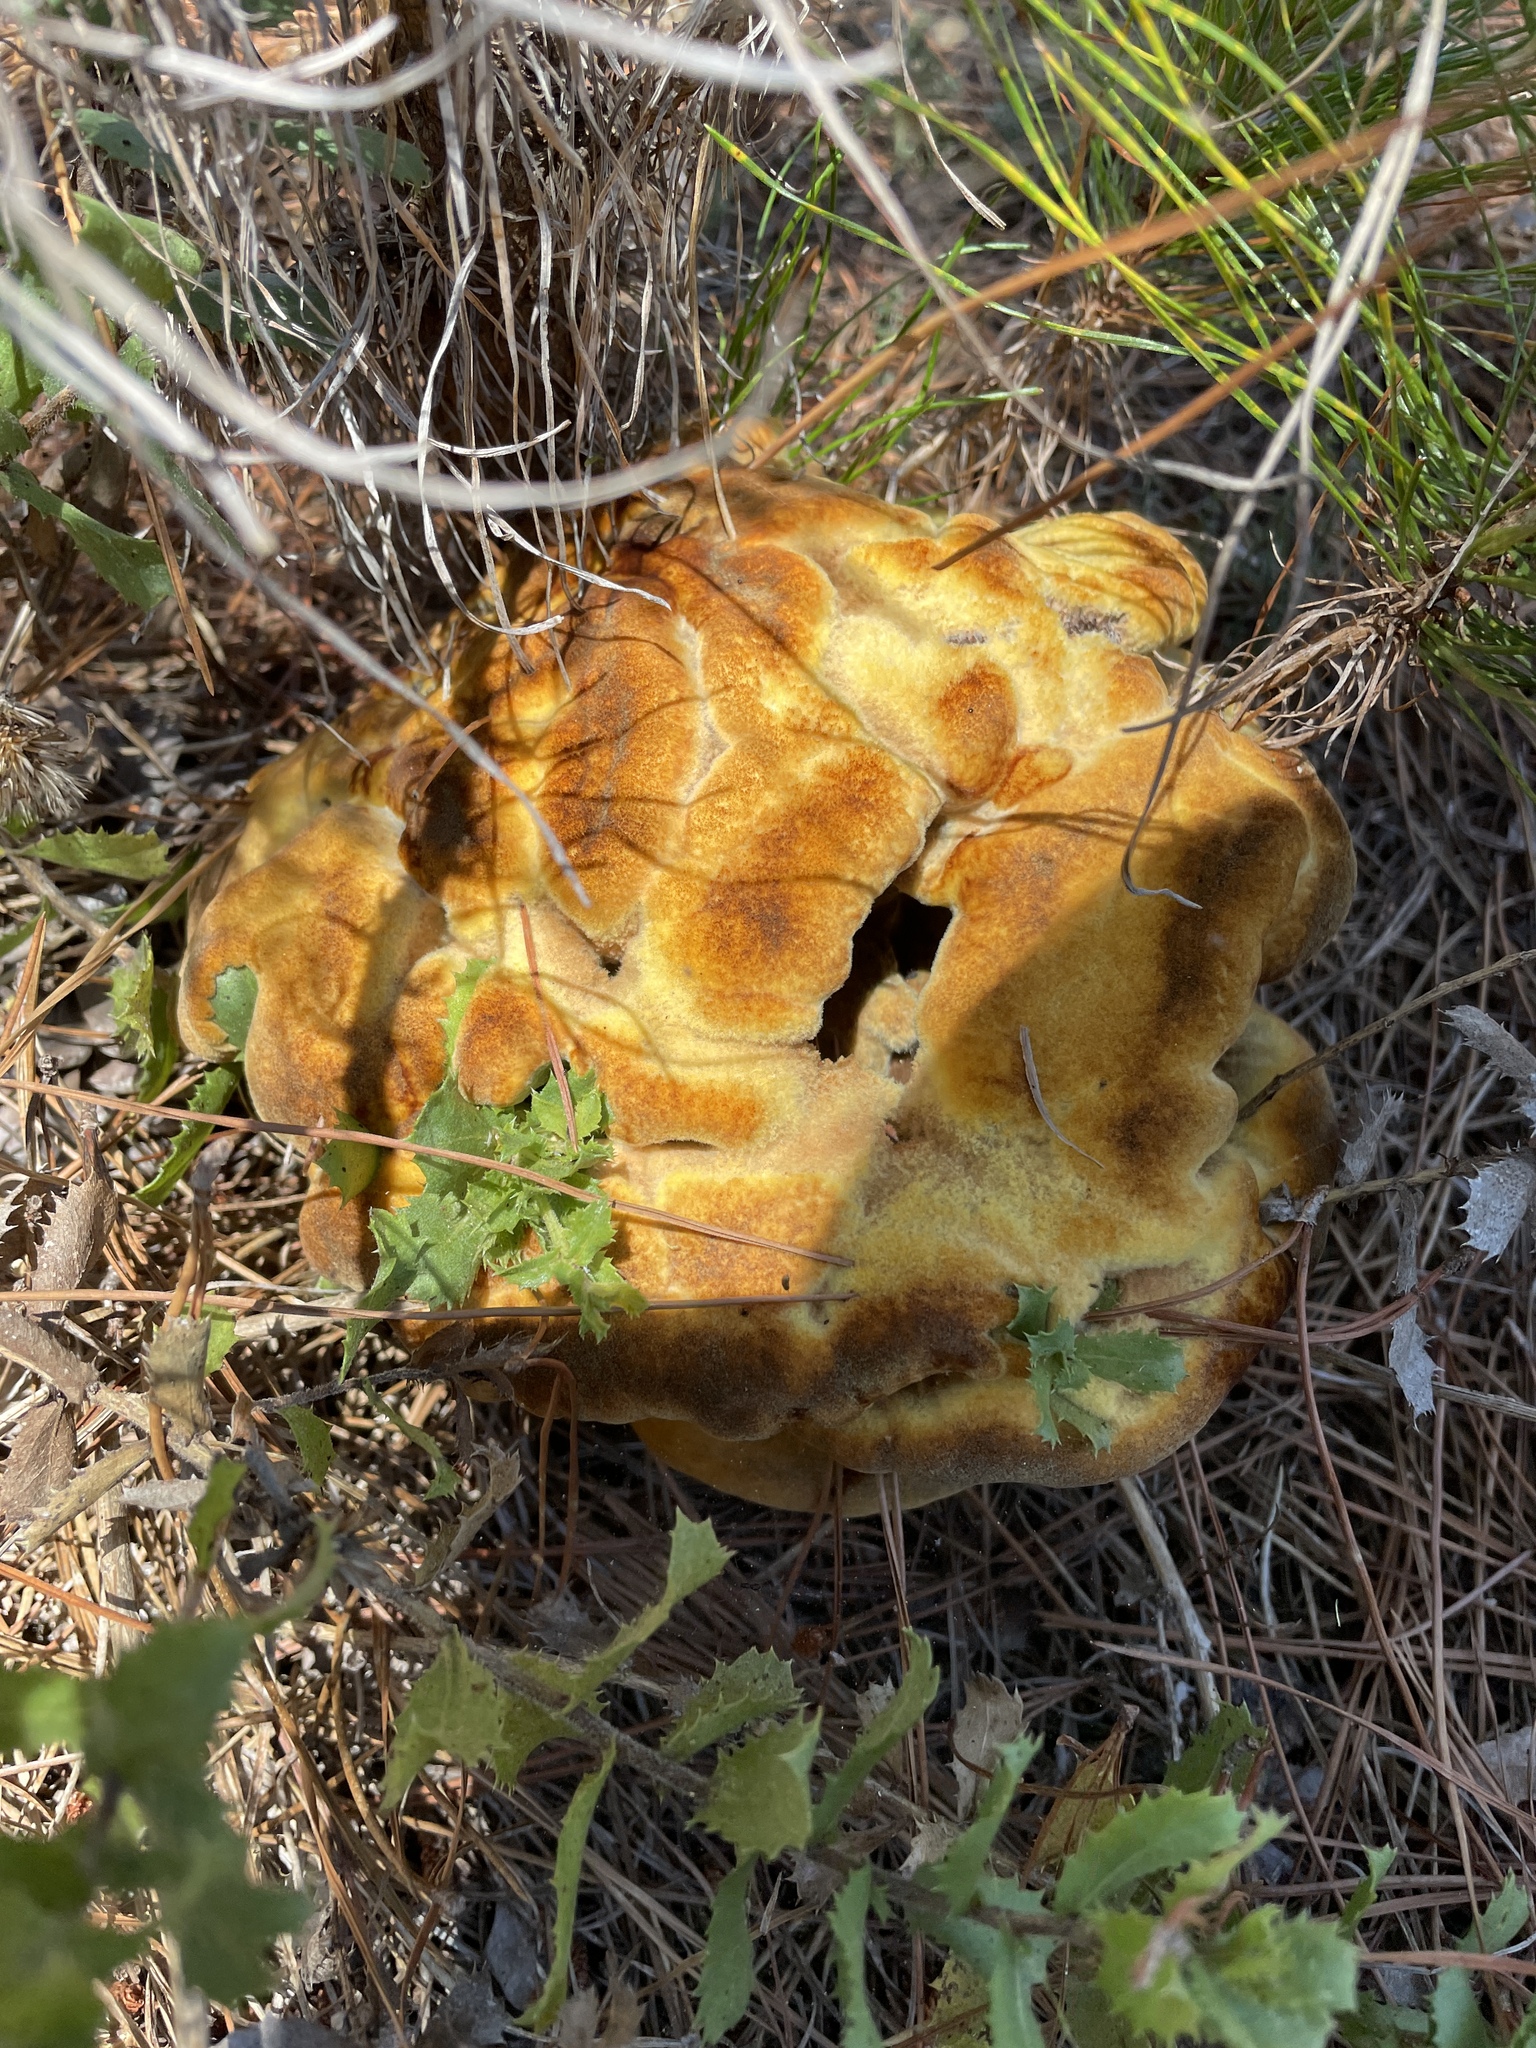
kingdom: Fungi
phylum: Basidiomycota
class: Agaricomycetes
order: Polyporales
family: Laetiporaceae
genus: Phaeolus
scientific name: Phaeolus schweinitzii
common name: Dyer's mazegill
